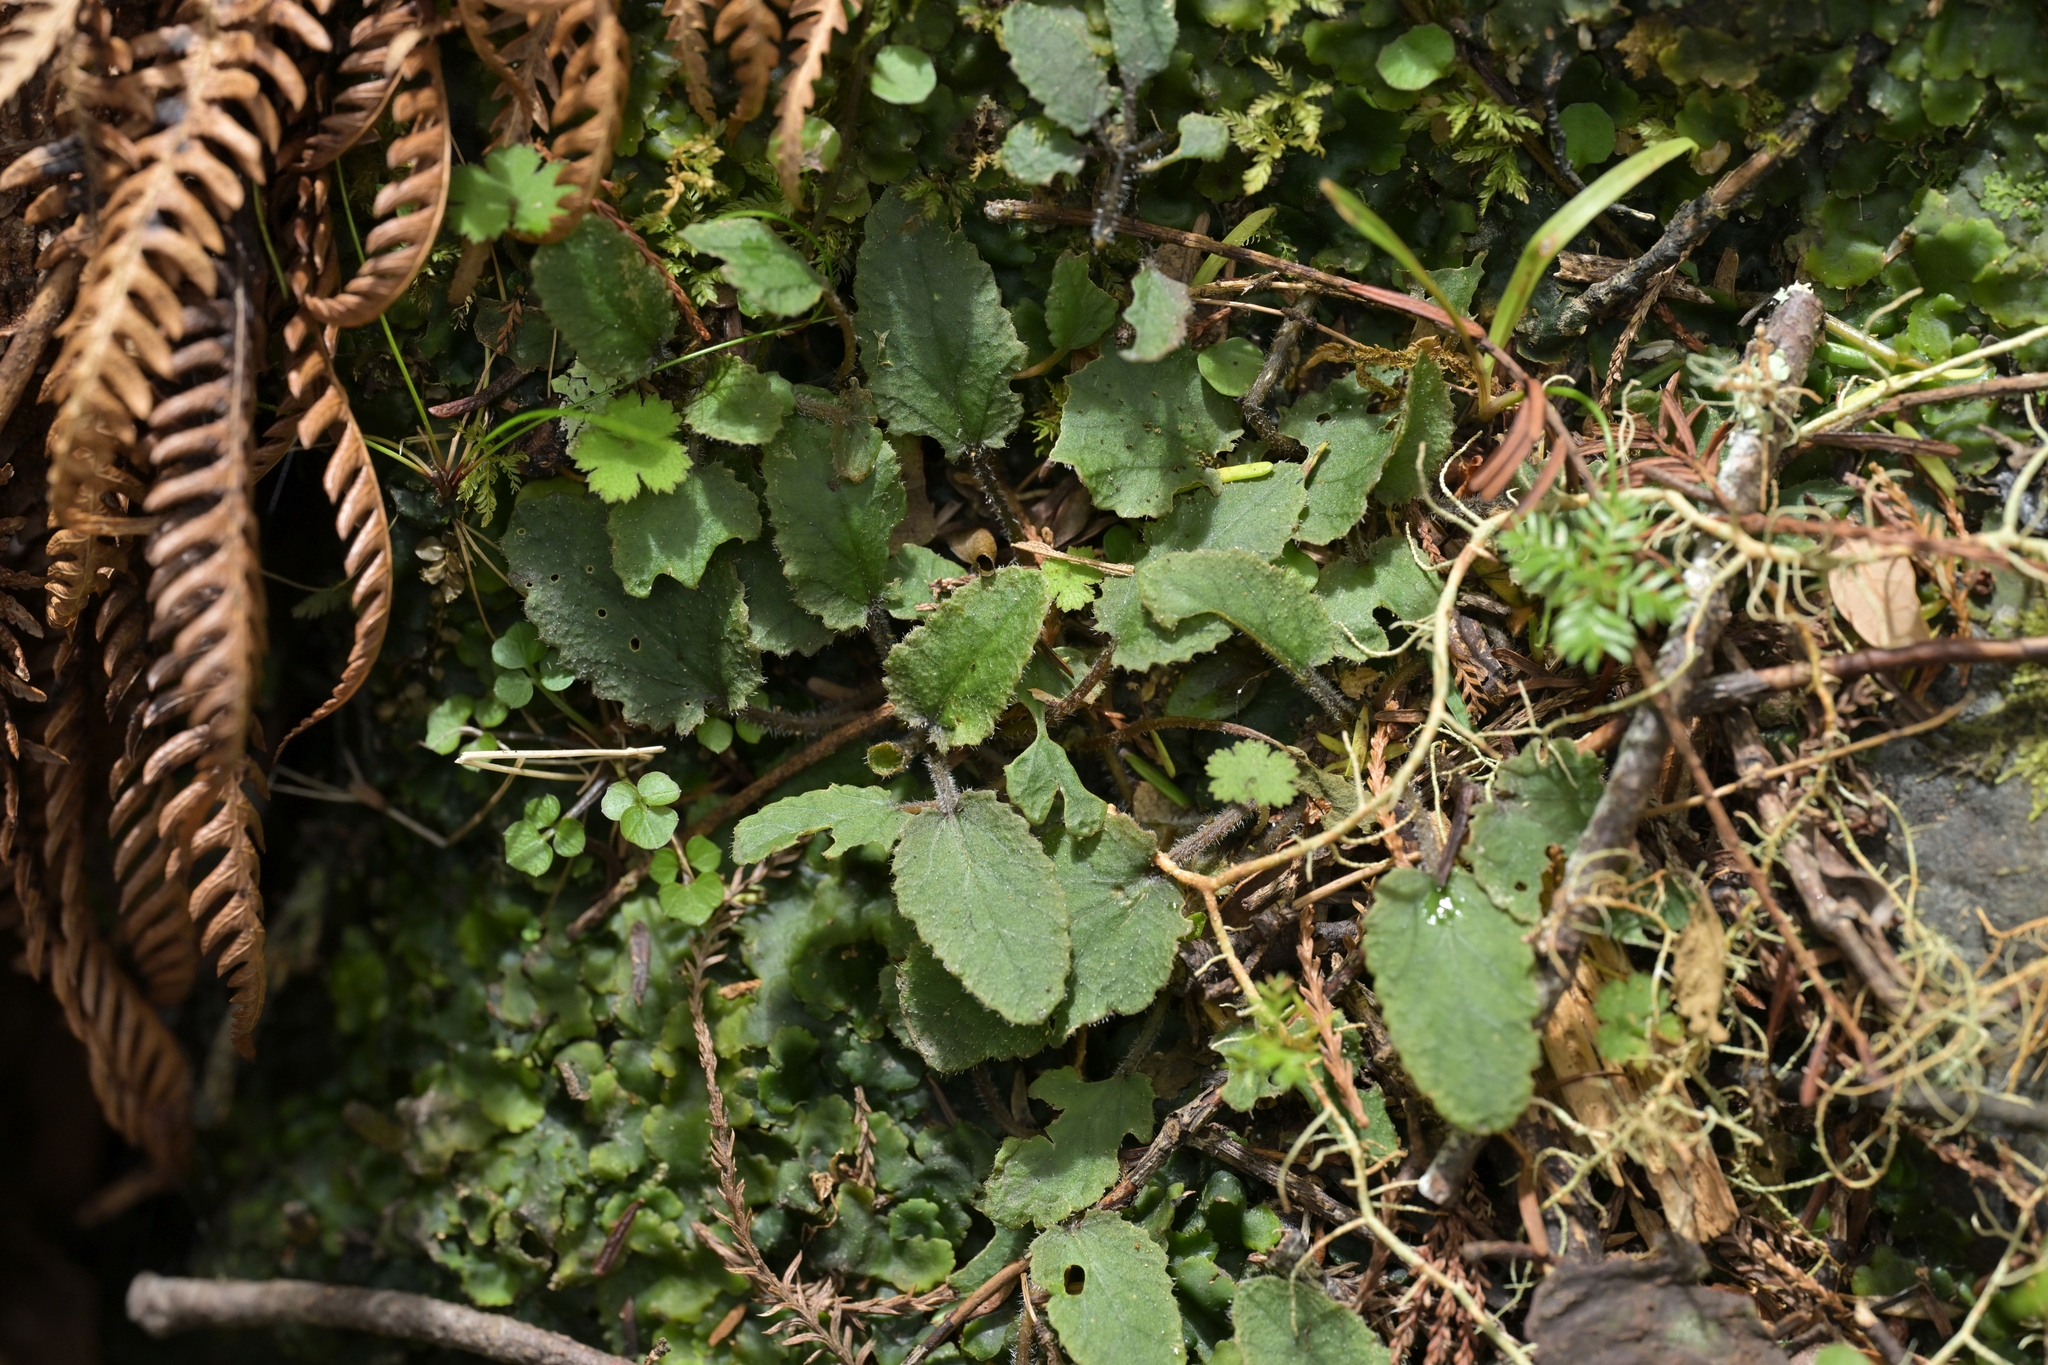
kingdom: Plantae
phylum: Tracheophyta
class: Magnoliopsida
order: Gunnerales
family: Gunneraceae
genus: Gunnera
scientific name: Gunnera prorepens
